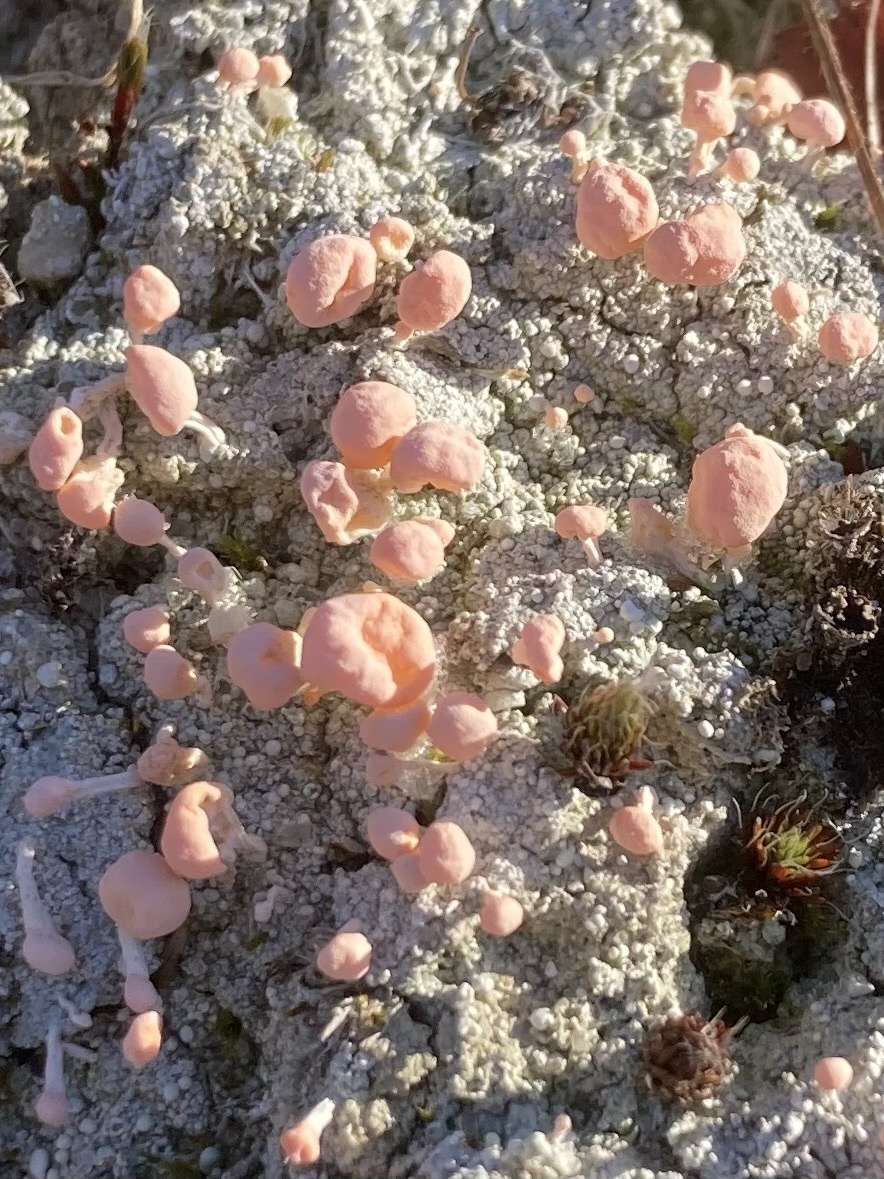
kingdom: Fungi
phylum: Ascomycota
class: Lecanoromycetes
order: Pertusariales
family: Icmadophilaceae
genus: Dibaeis
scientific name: Dibaeis baeomyces
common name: Pink earth lichen
